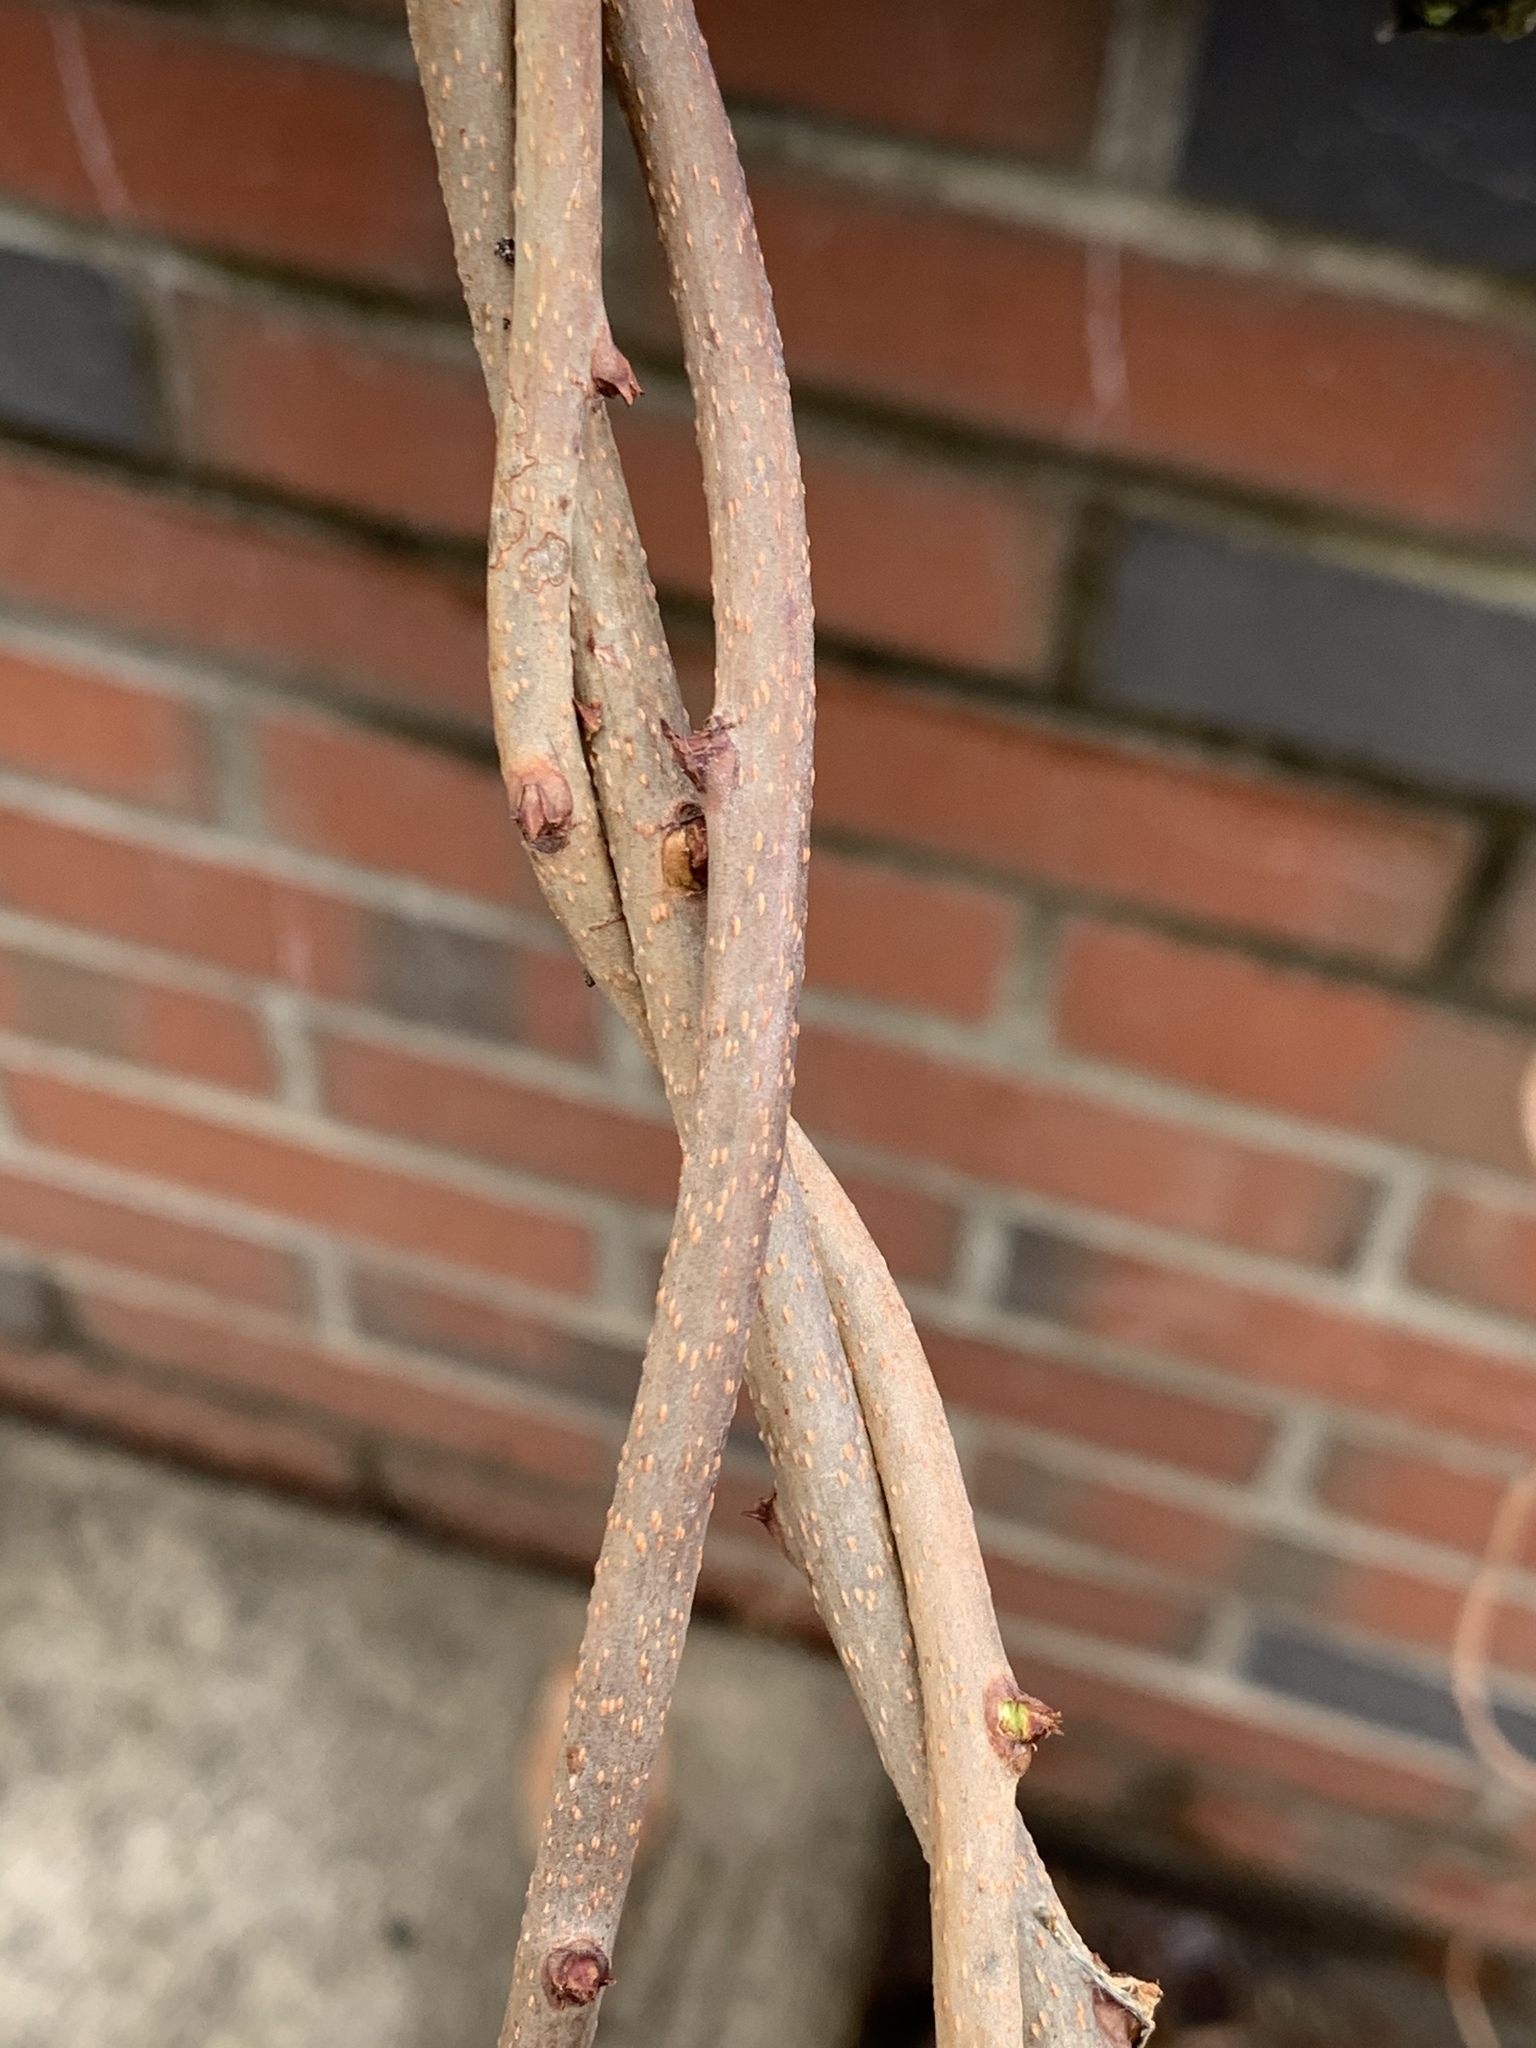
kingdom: Plantae
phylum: Tracheophyta
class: Magnoliopsida
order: Celastrales
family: Celastraceae
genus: Celastrus
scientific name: Celastrus orbiculatus
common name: Oriental bittersweet
